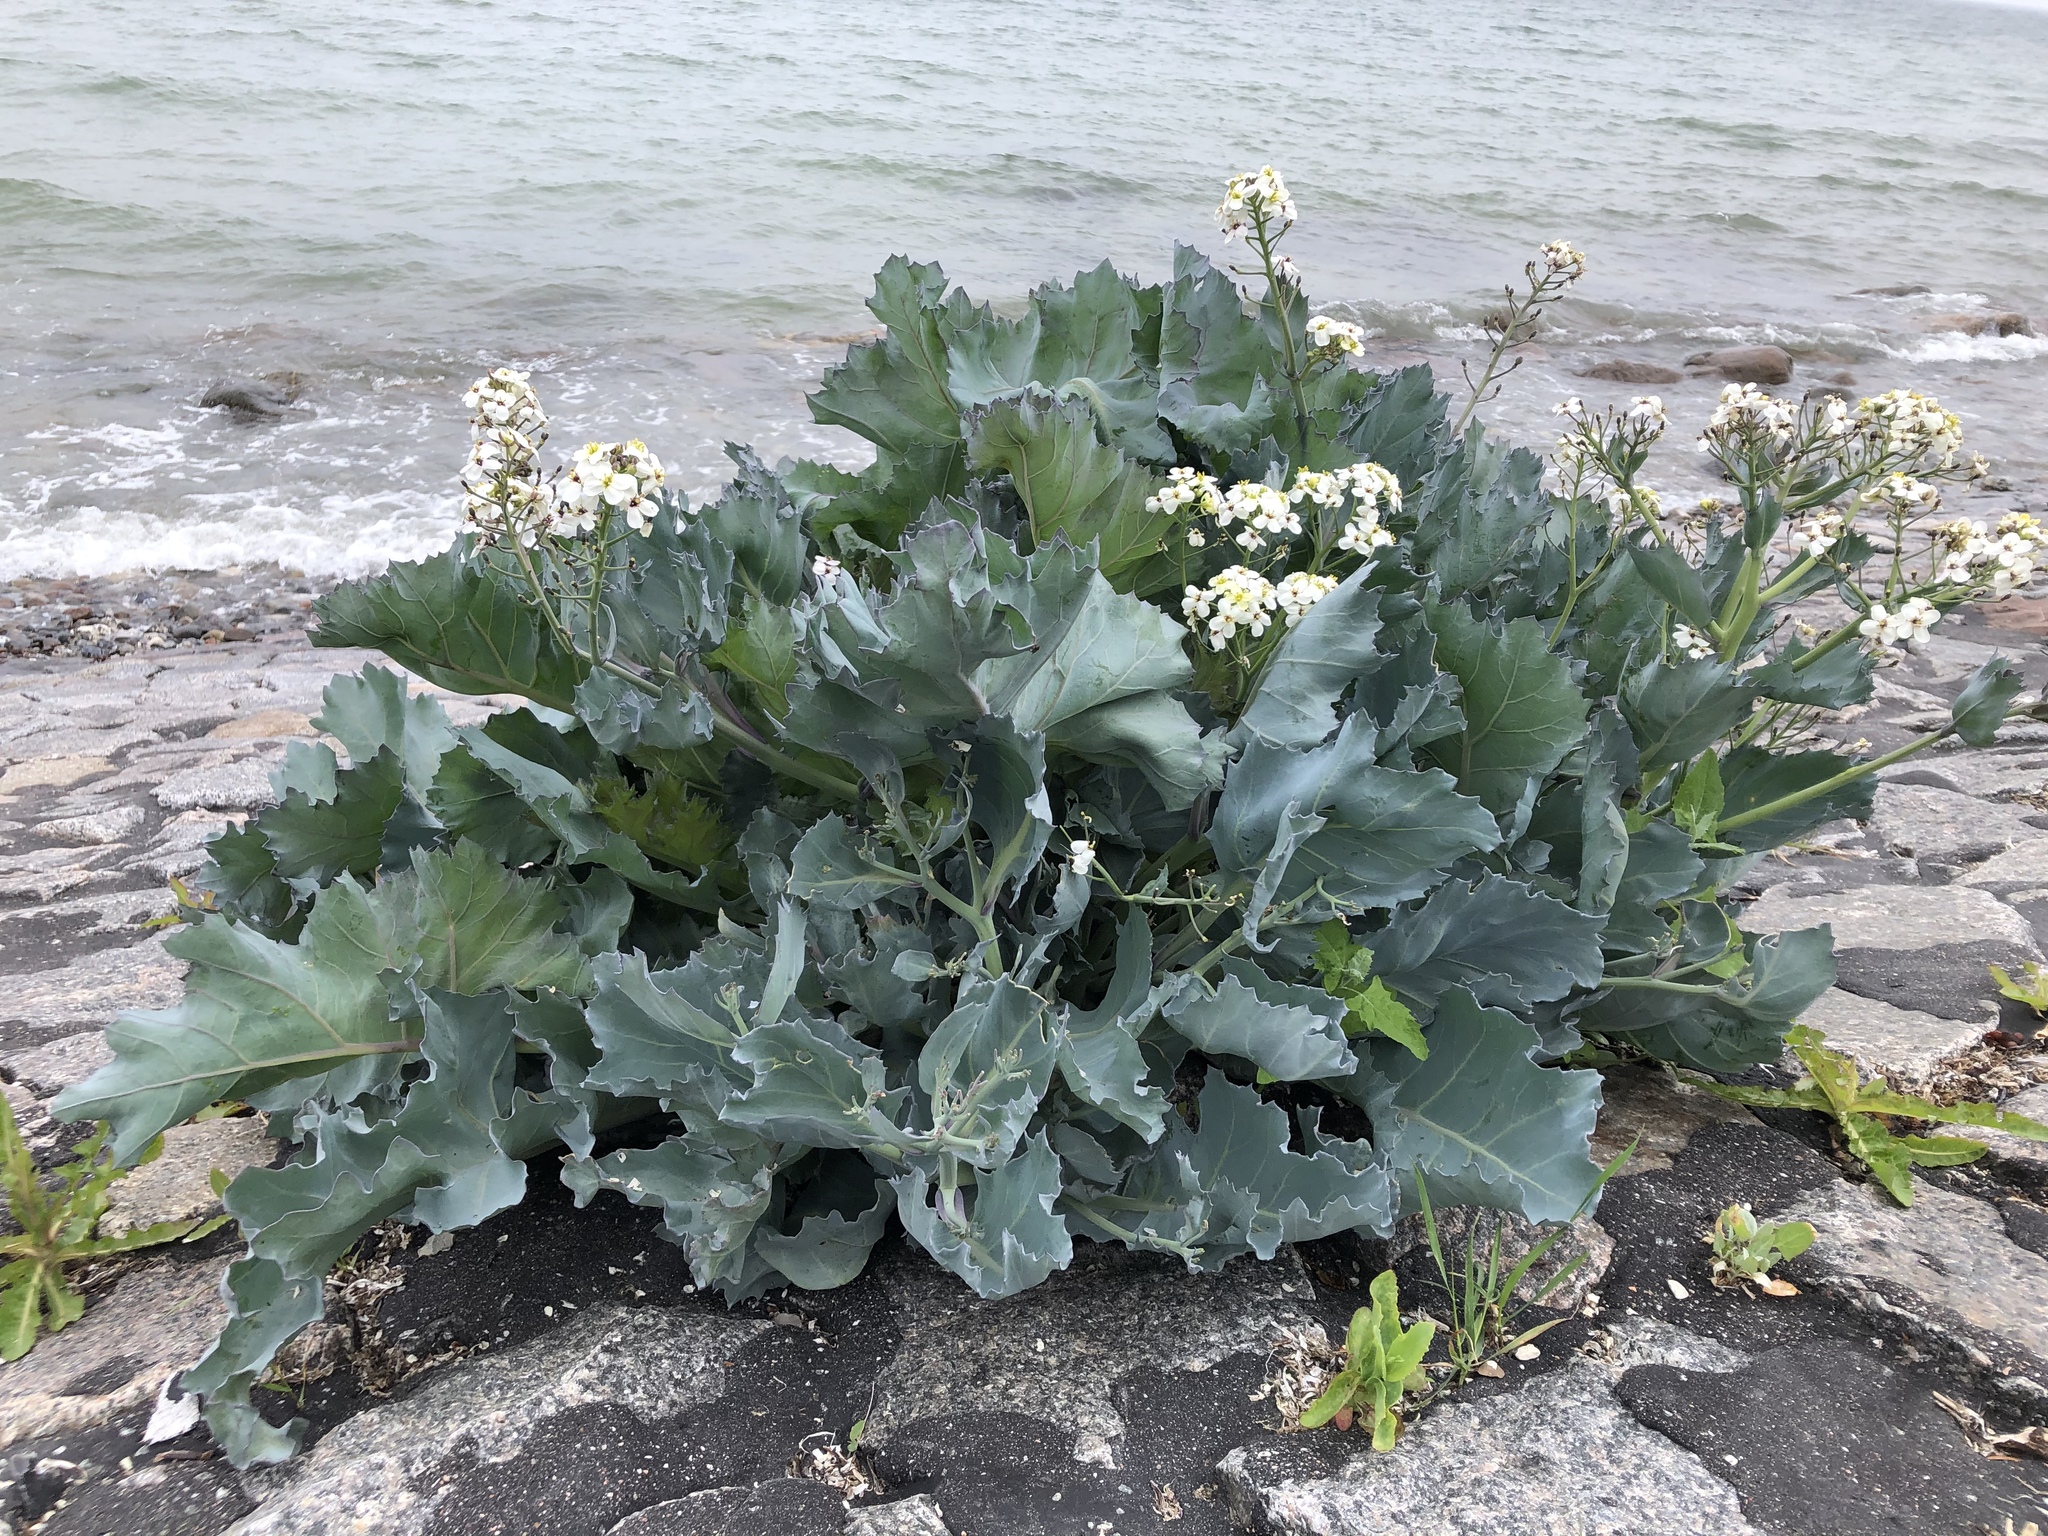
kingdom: Plantae
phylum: Tracheophyta
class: Magnoliopsida
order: Brassicales
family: Brassicaceae
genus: Crambe
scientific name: Crambe maritima
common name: Sea-kale
